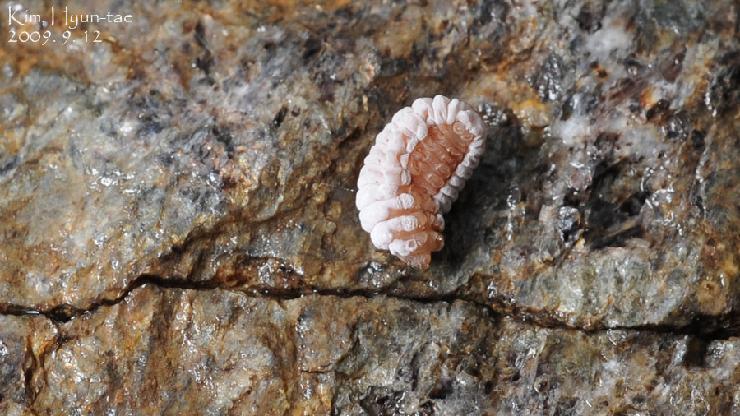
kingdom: Animalia
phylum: Arthropoda
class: Insecta
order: Lepidoptera
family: Epipyropidae
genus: Epipomponia
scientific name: Epipomponia nawai
